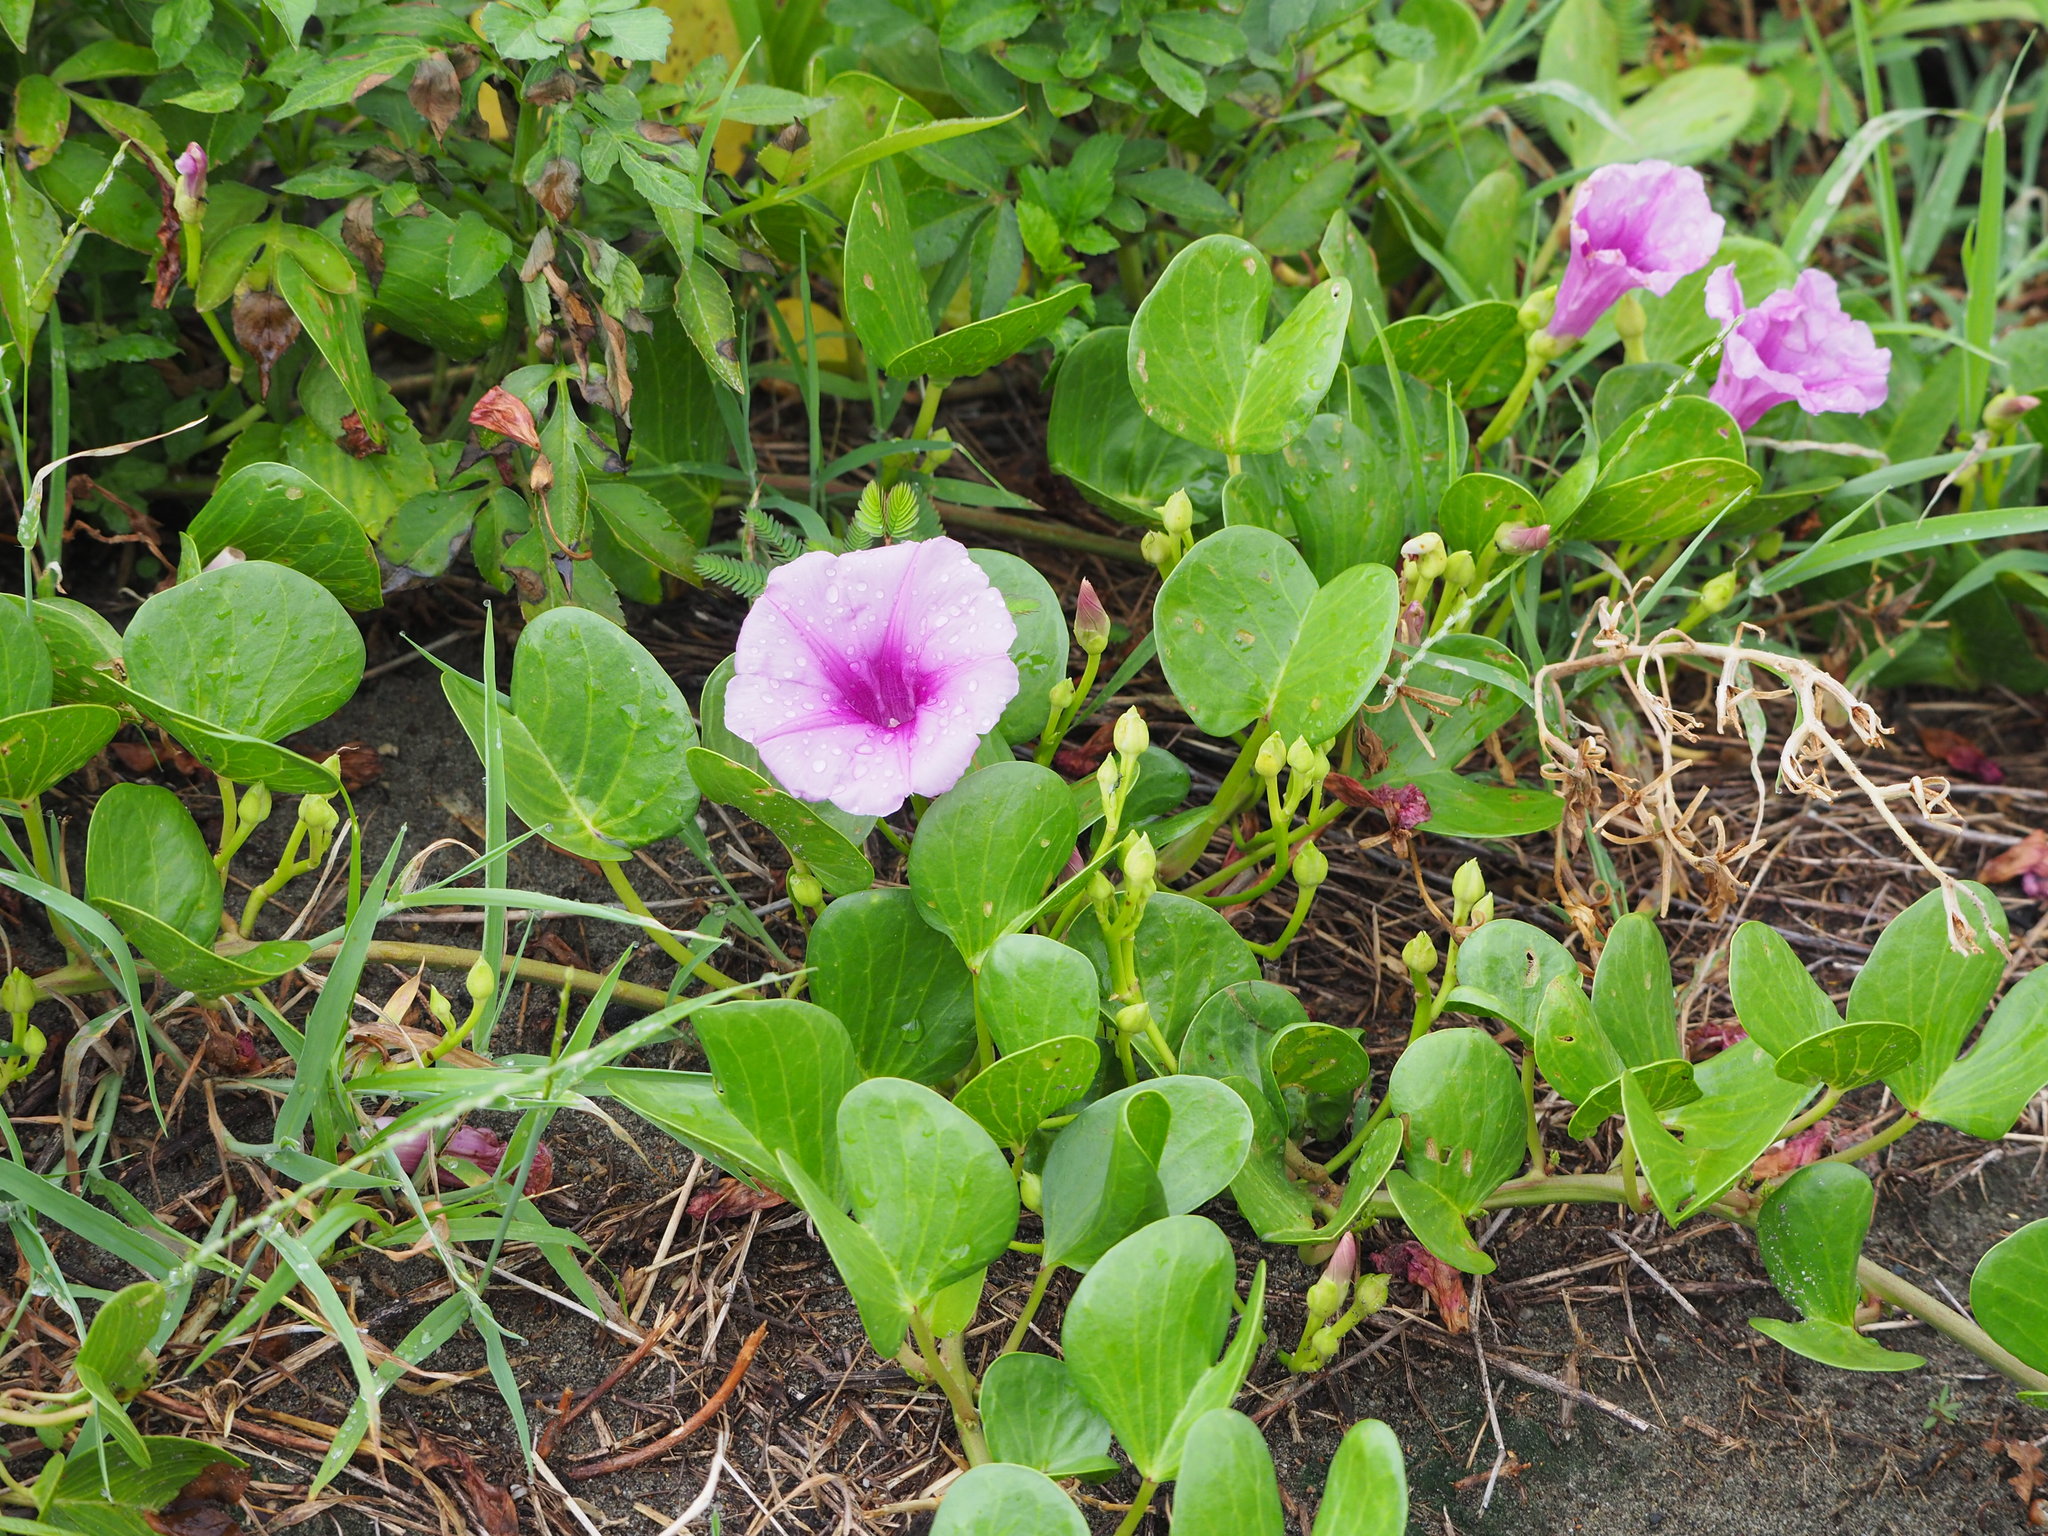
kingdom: Plantae
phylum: Tracheophyta
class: Magnoliopsida
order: Solanales
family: Convolvulaceae
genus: Ipomoea
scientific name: Ipomoea pes-caprae
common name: Beach morning glory
